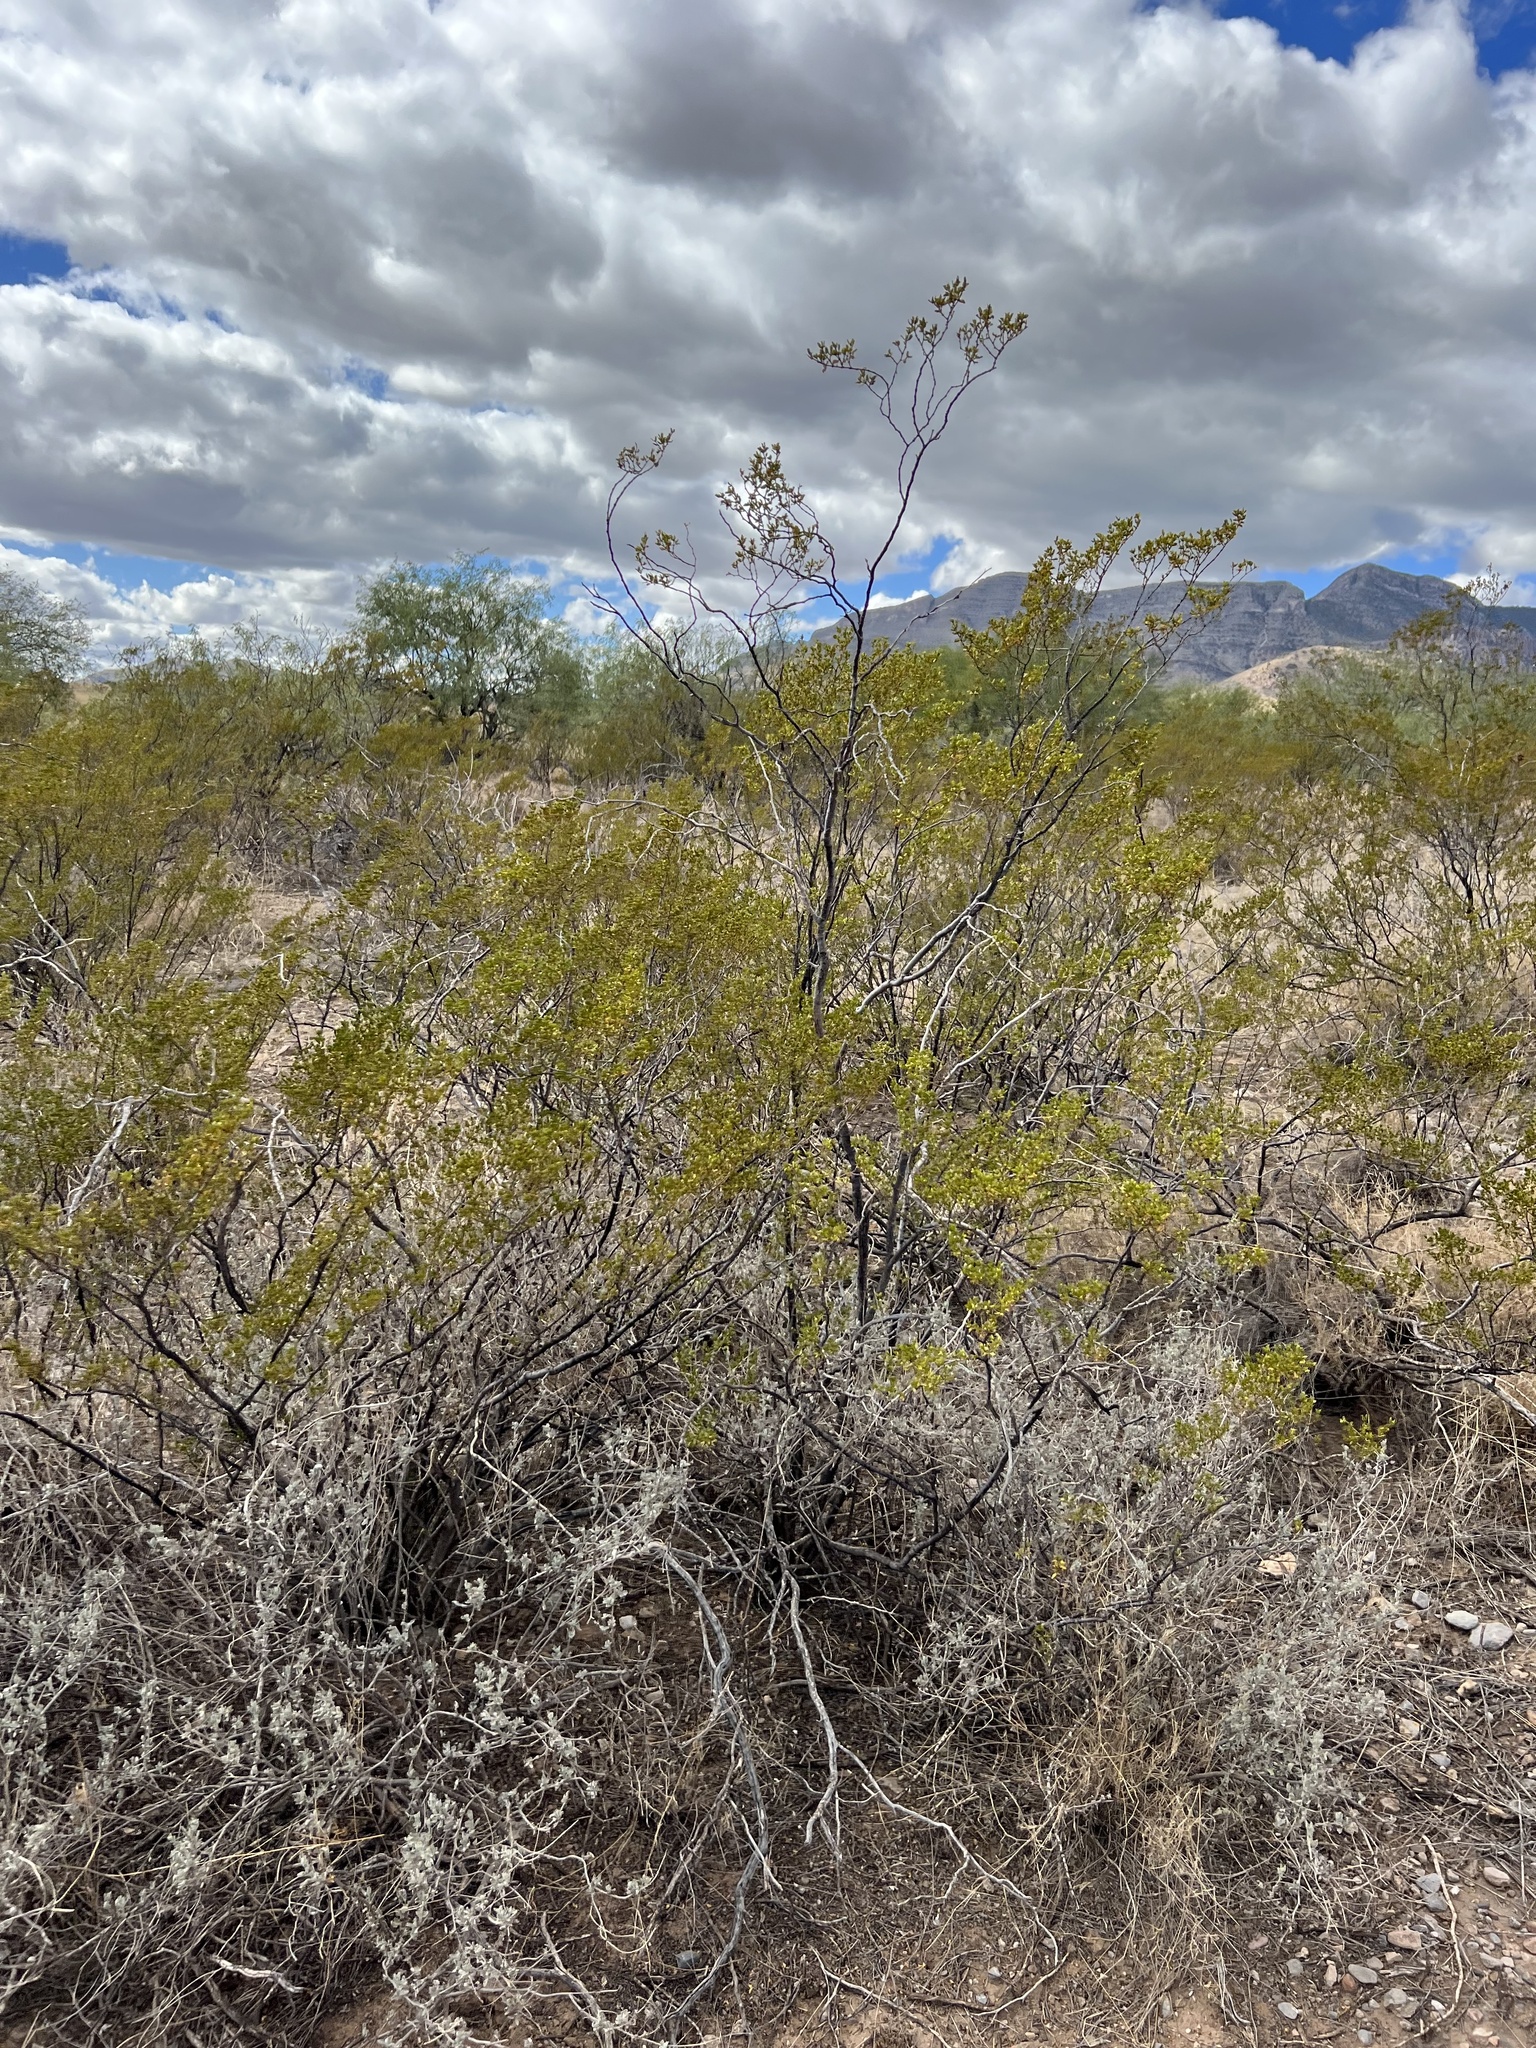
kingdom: Plantae
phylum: Tracheophyta
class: Magnoliopsida
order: Zygophyllales
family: Zygophyllaceae
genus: Larrea
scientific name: Larrea tridentata
